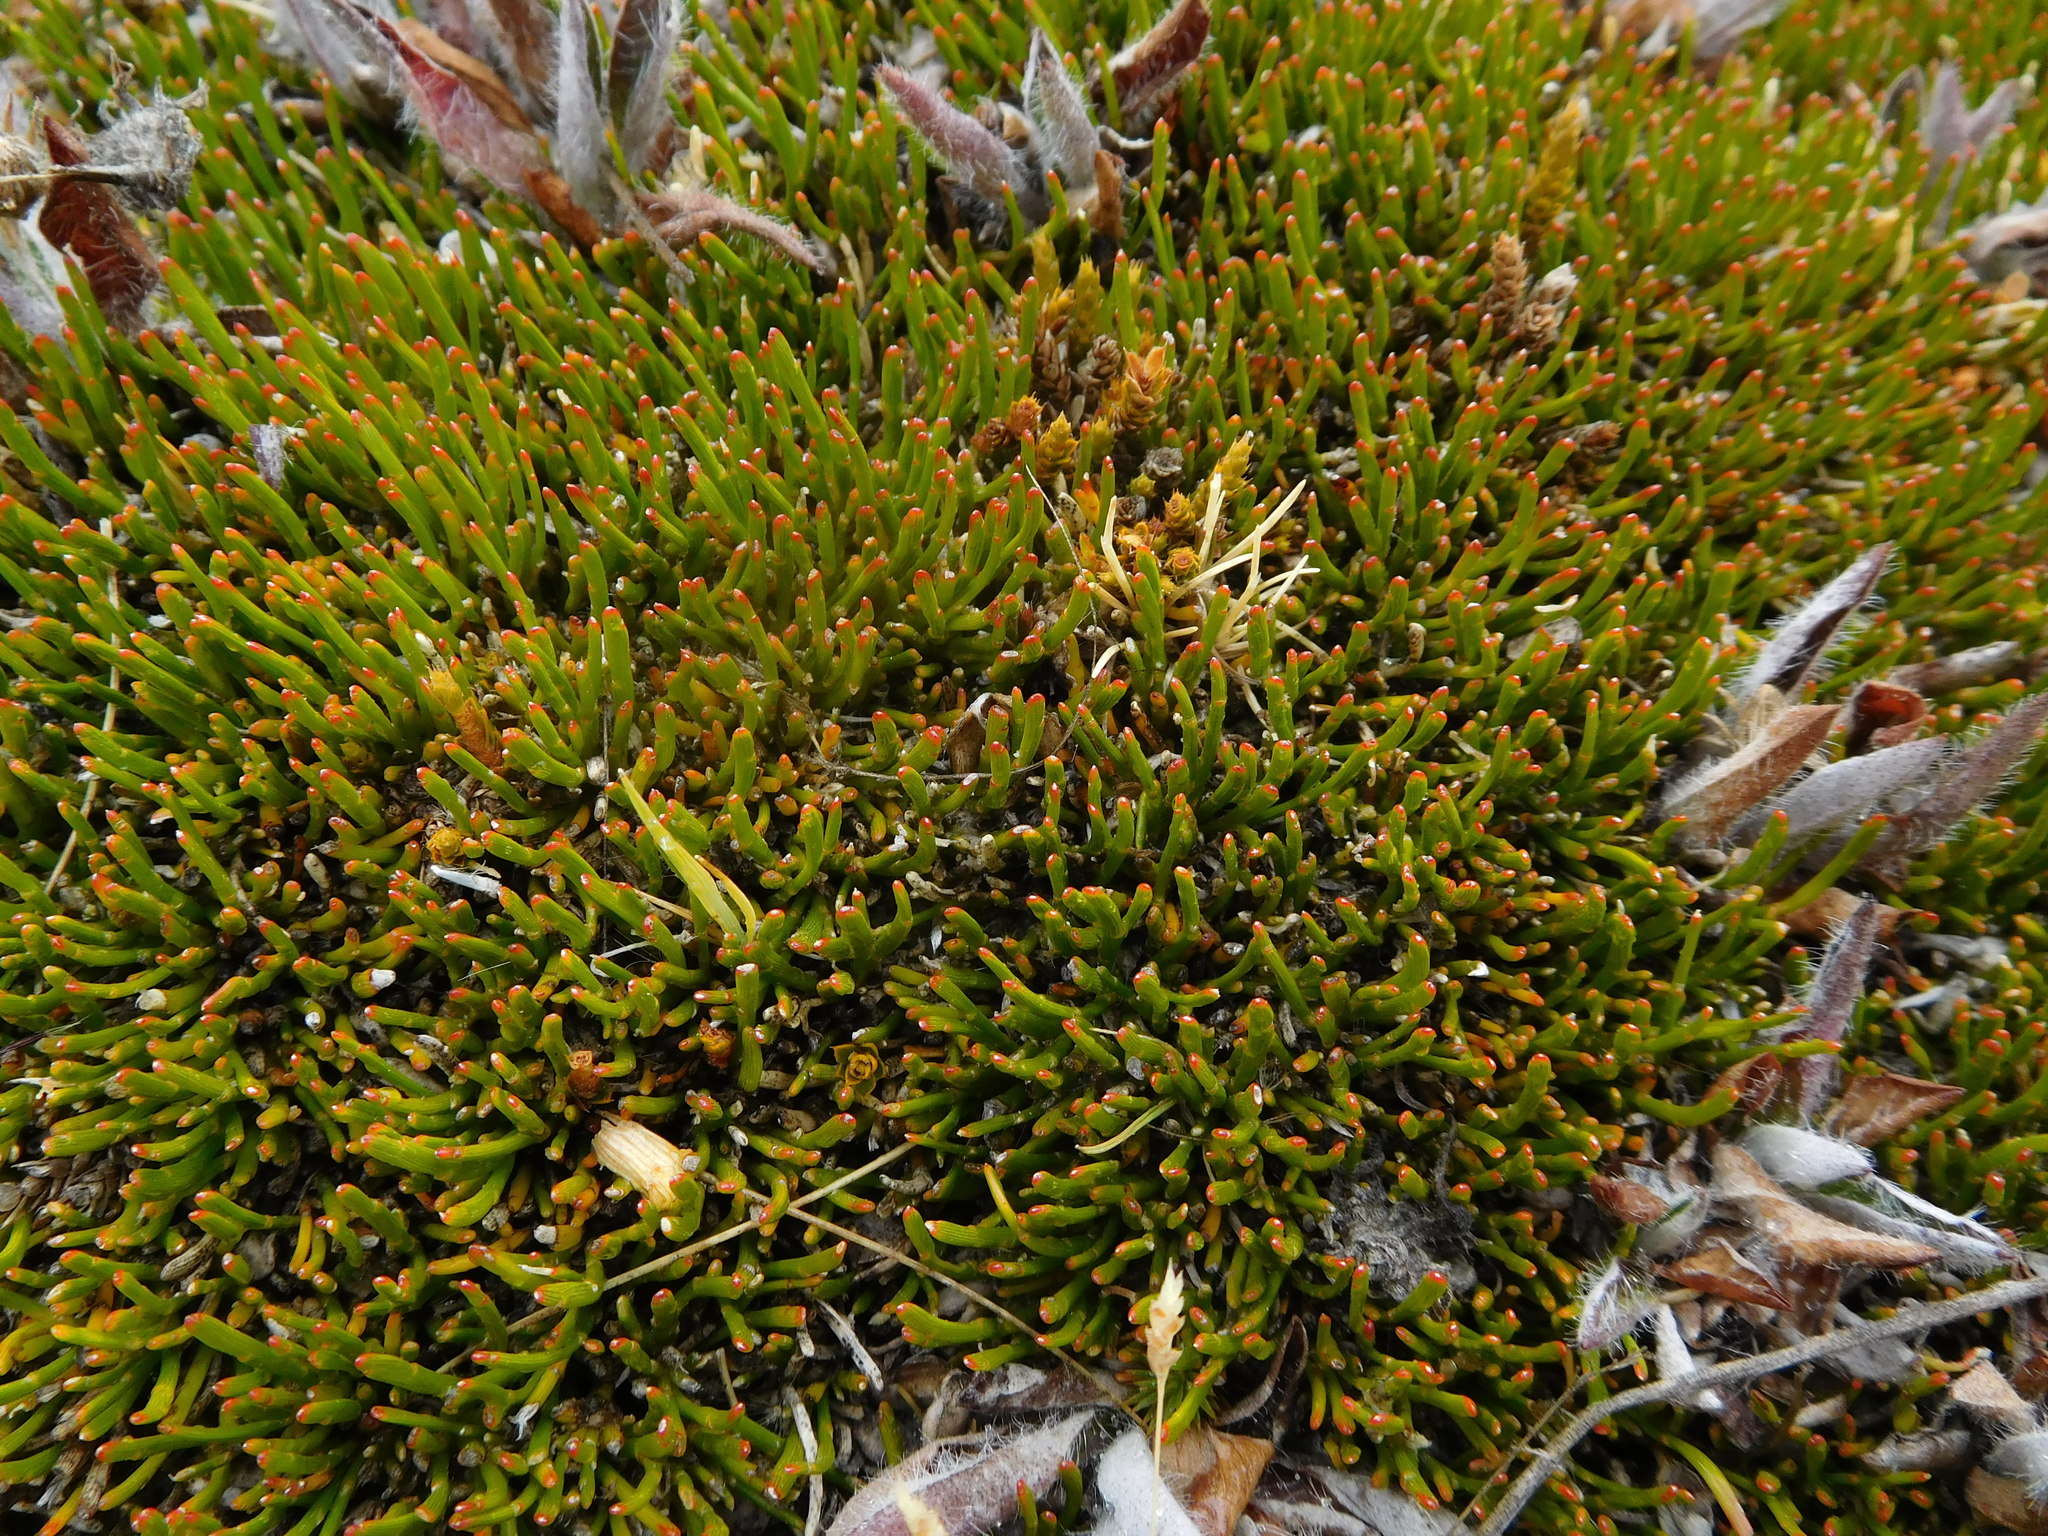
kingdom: Plantae
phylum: Tracheophyta
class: Magnoliopsida
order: Fabales
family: Fabaceae
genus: Carmichaelia
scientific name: Carmichaelia nana
